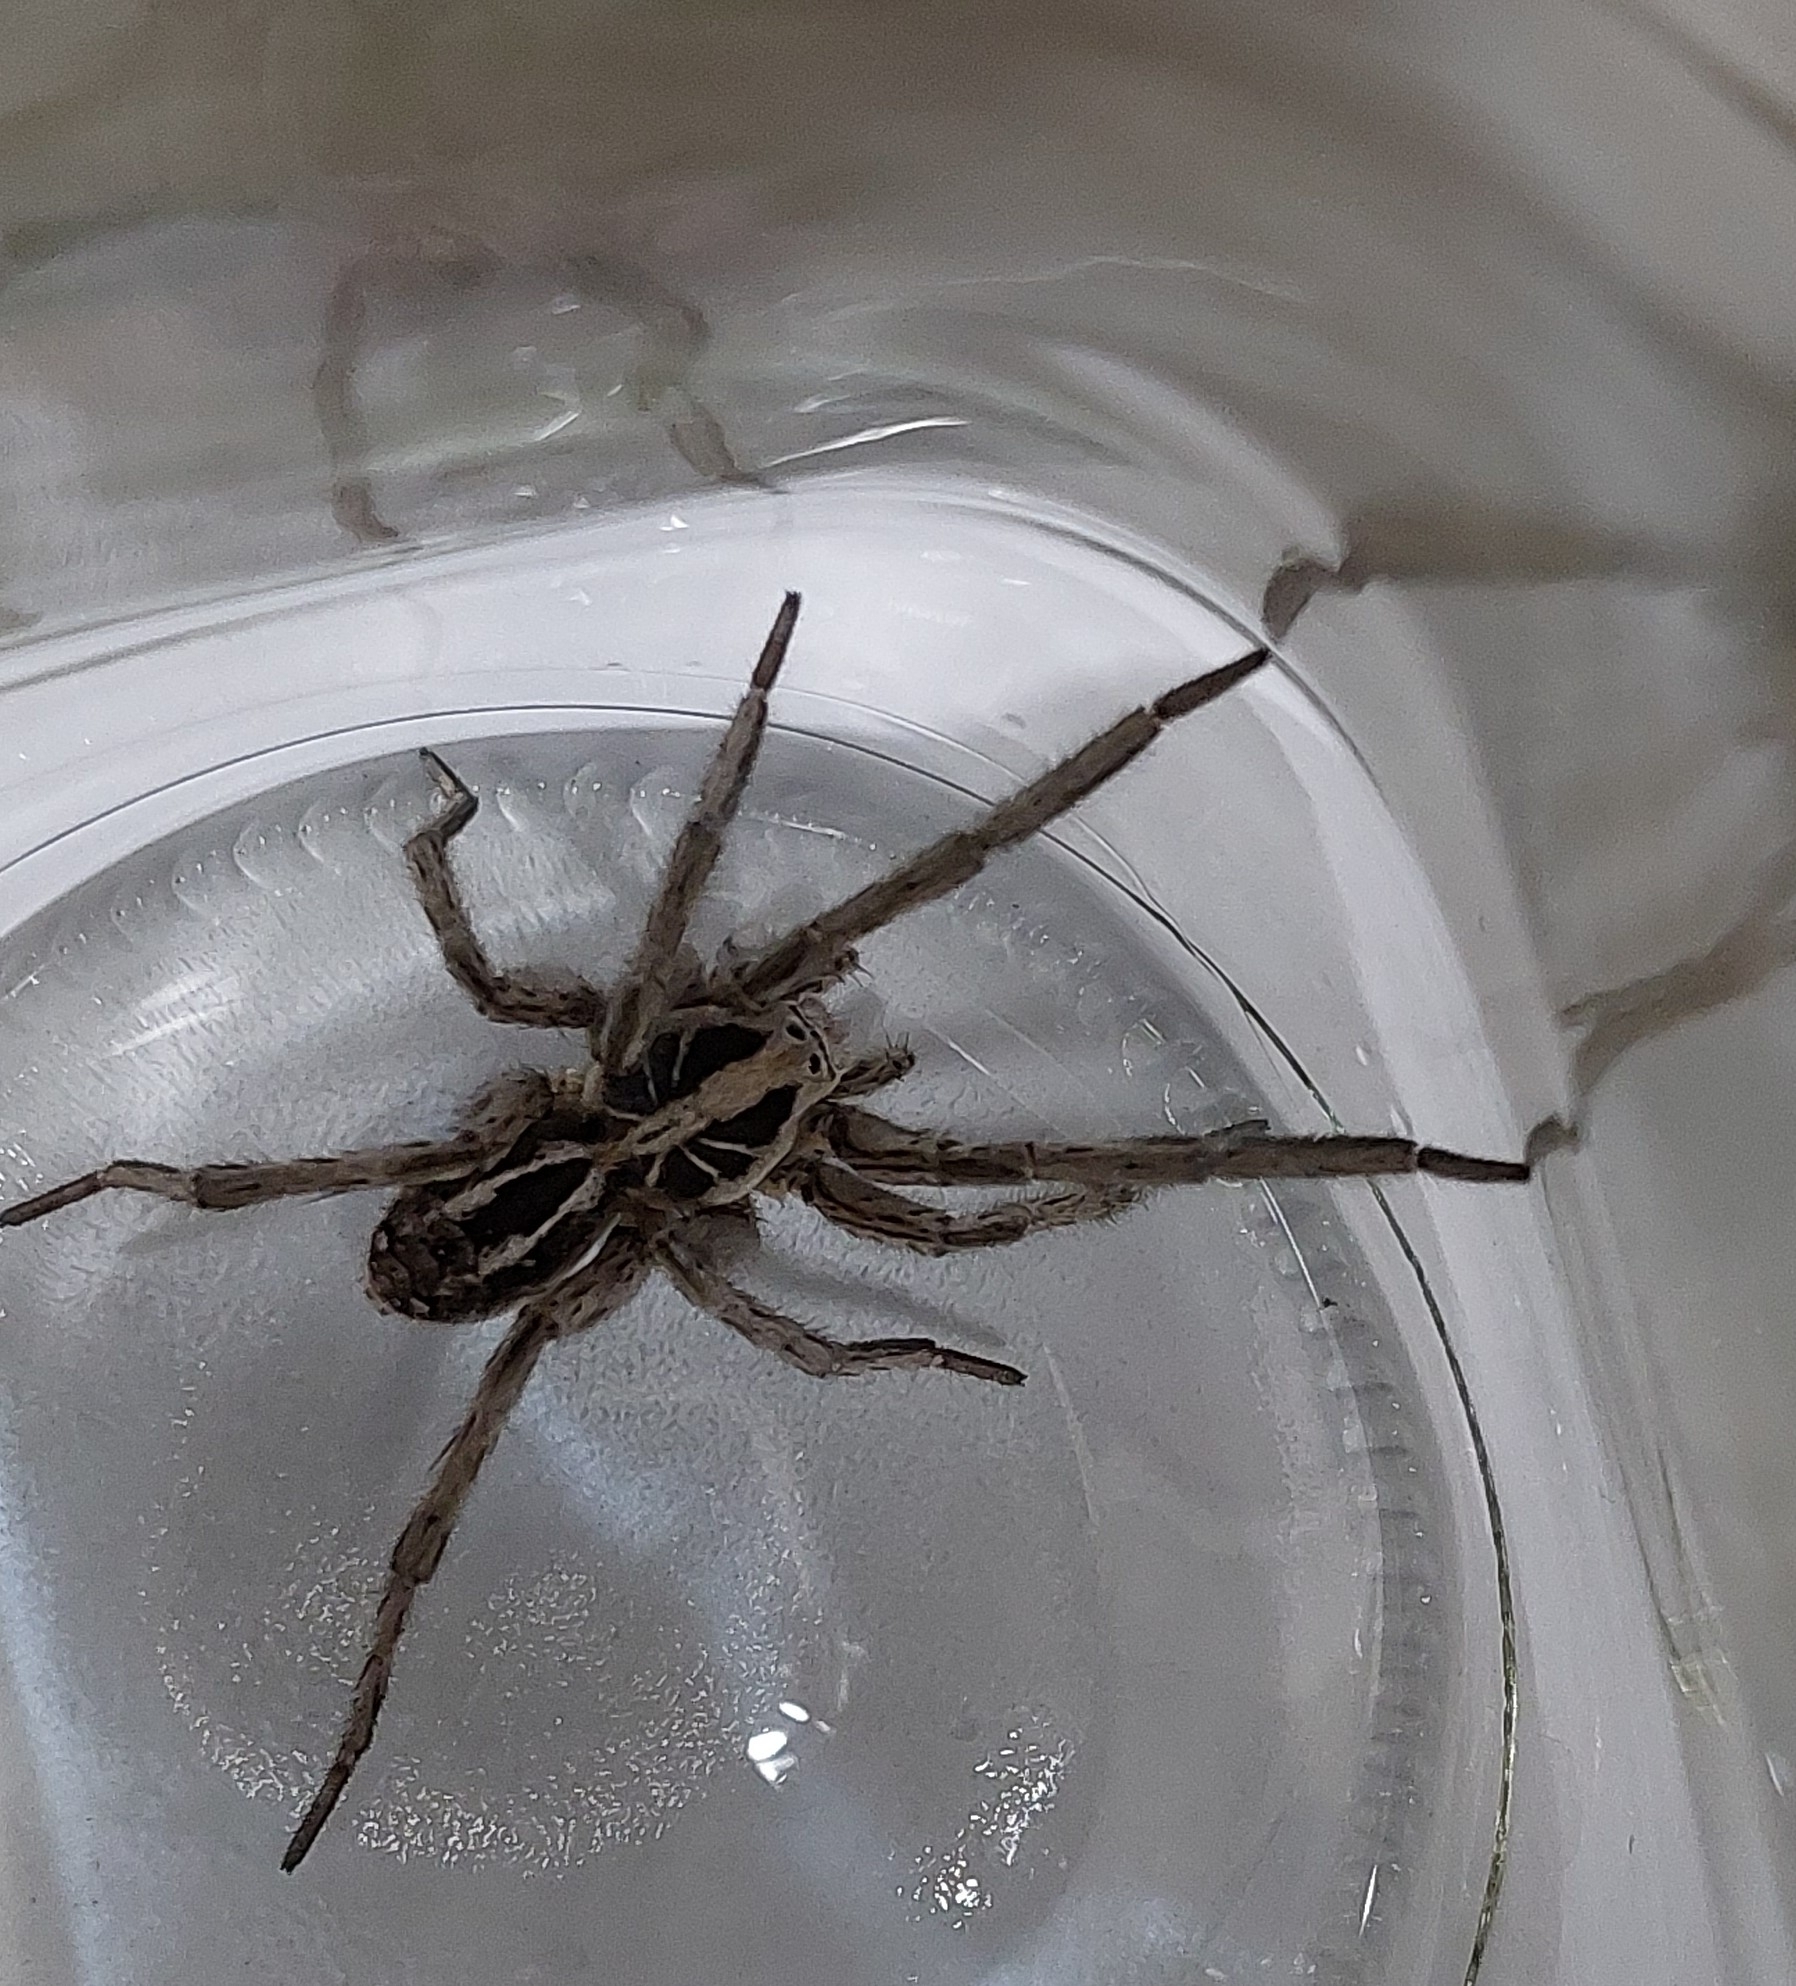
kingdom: Animalia
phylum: Arthropoda
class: Arachnida
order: Araneae
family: Lycosidae
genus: Lycosa
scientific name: Lycosa pampeana
